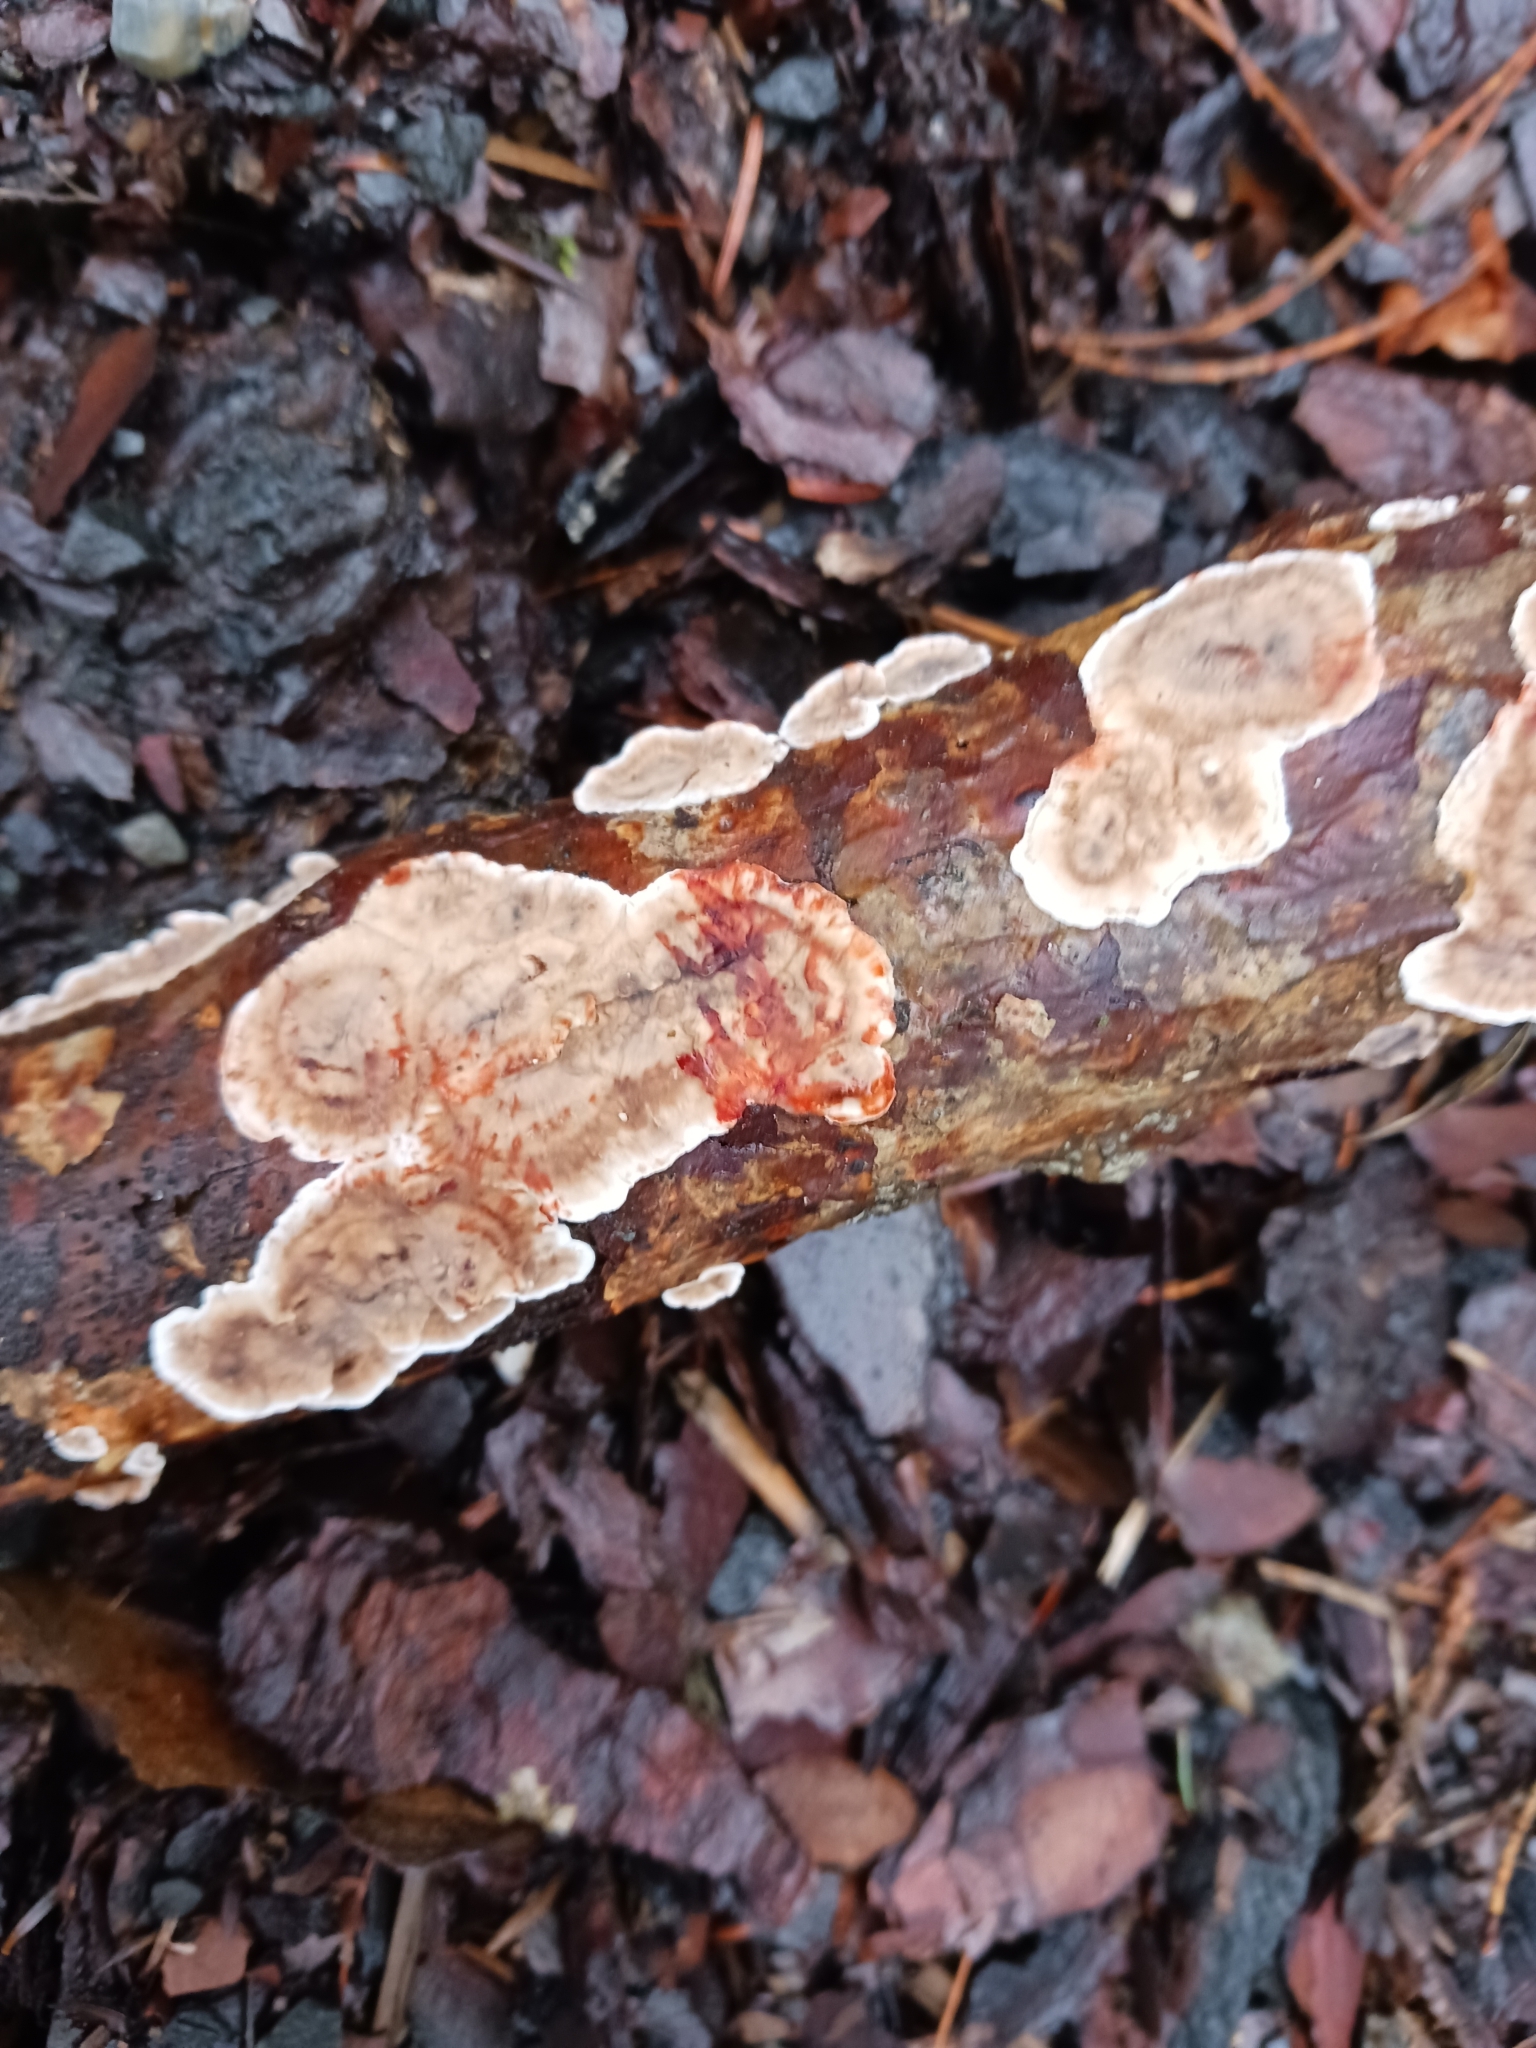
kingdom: Fungi
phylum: Basidiomycota
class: Agaricomycetes
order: Russulales
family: Stereaceae
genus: Stereum
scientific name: Stereum sanguinolentum
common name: Bleeding conifer crust
